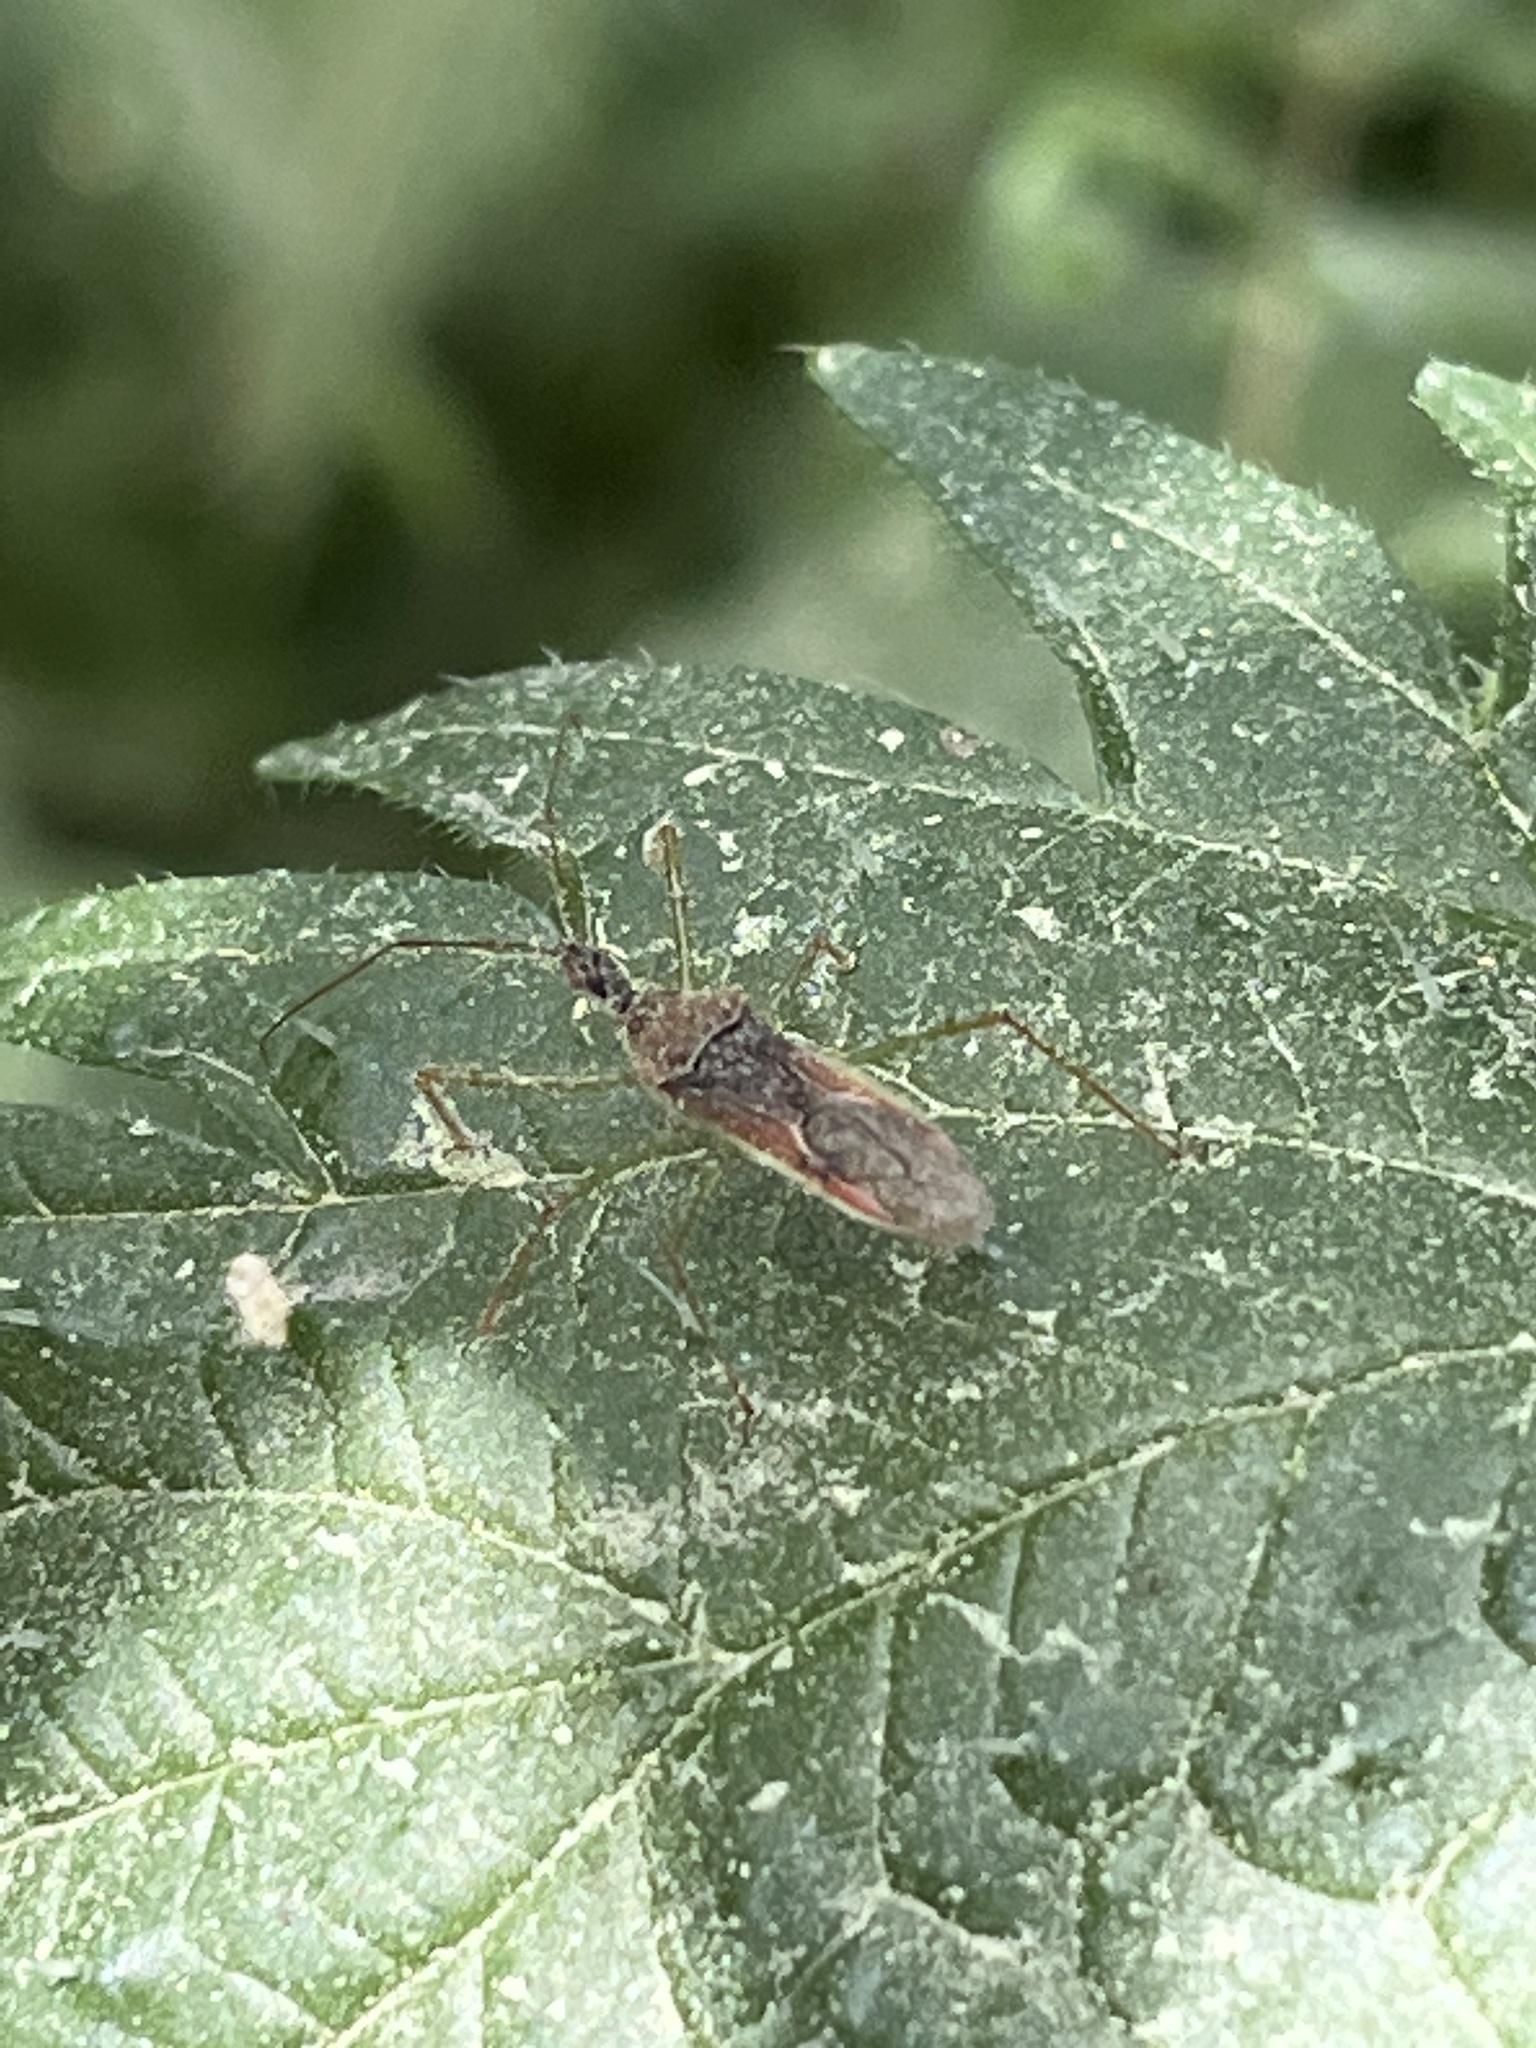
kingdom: Animalia
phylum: Arthropoda
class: Insecta
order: Hemiptera
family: Reduviidae
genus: Zelus
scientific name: Zelus renardii
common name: Assassin bug
